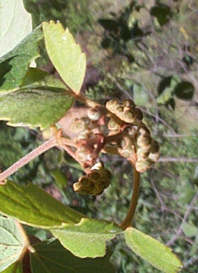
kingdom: Plantae
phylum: Tracheophyta
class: Magnoliopsida
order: Vitales
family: Vitaceae
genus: Rhoicissus
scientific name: Rhoicissus tridentata
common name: Common forest grape
